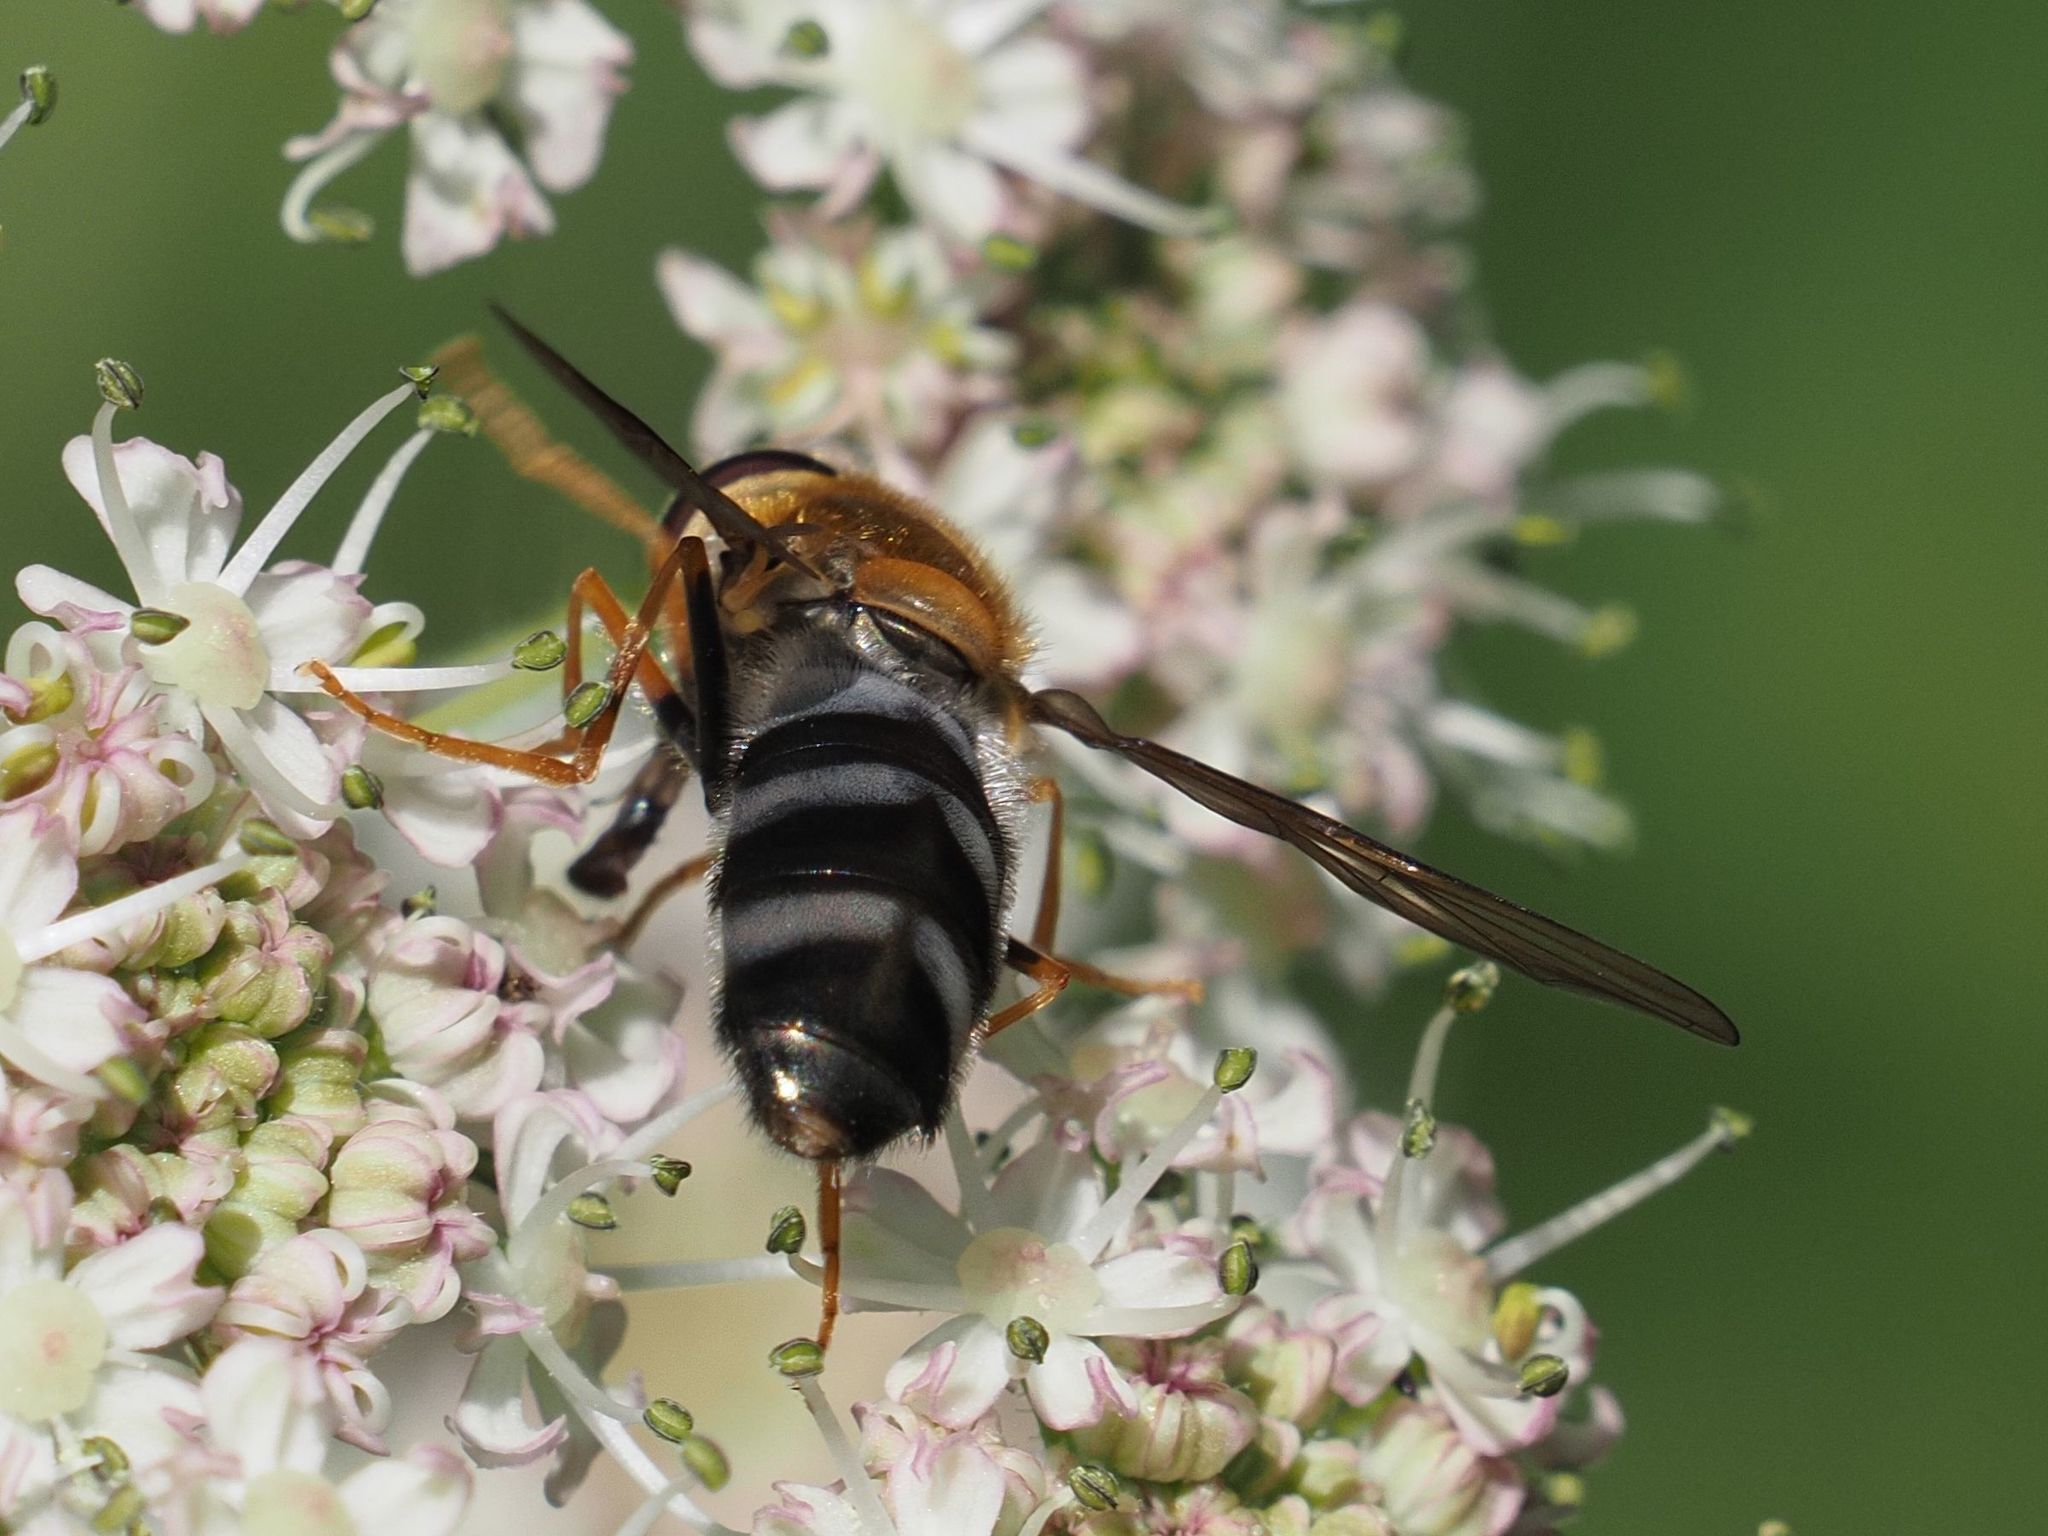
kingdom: Animalia
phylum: Arthropoda
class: Insecta
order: Diptera
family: Syrphidae
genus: Leucozona
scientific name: Leucozona glaucia
